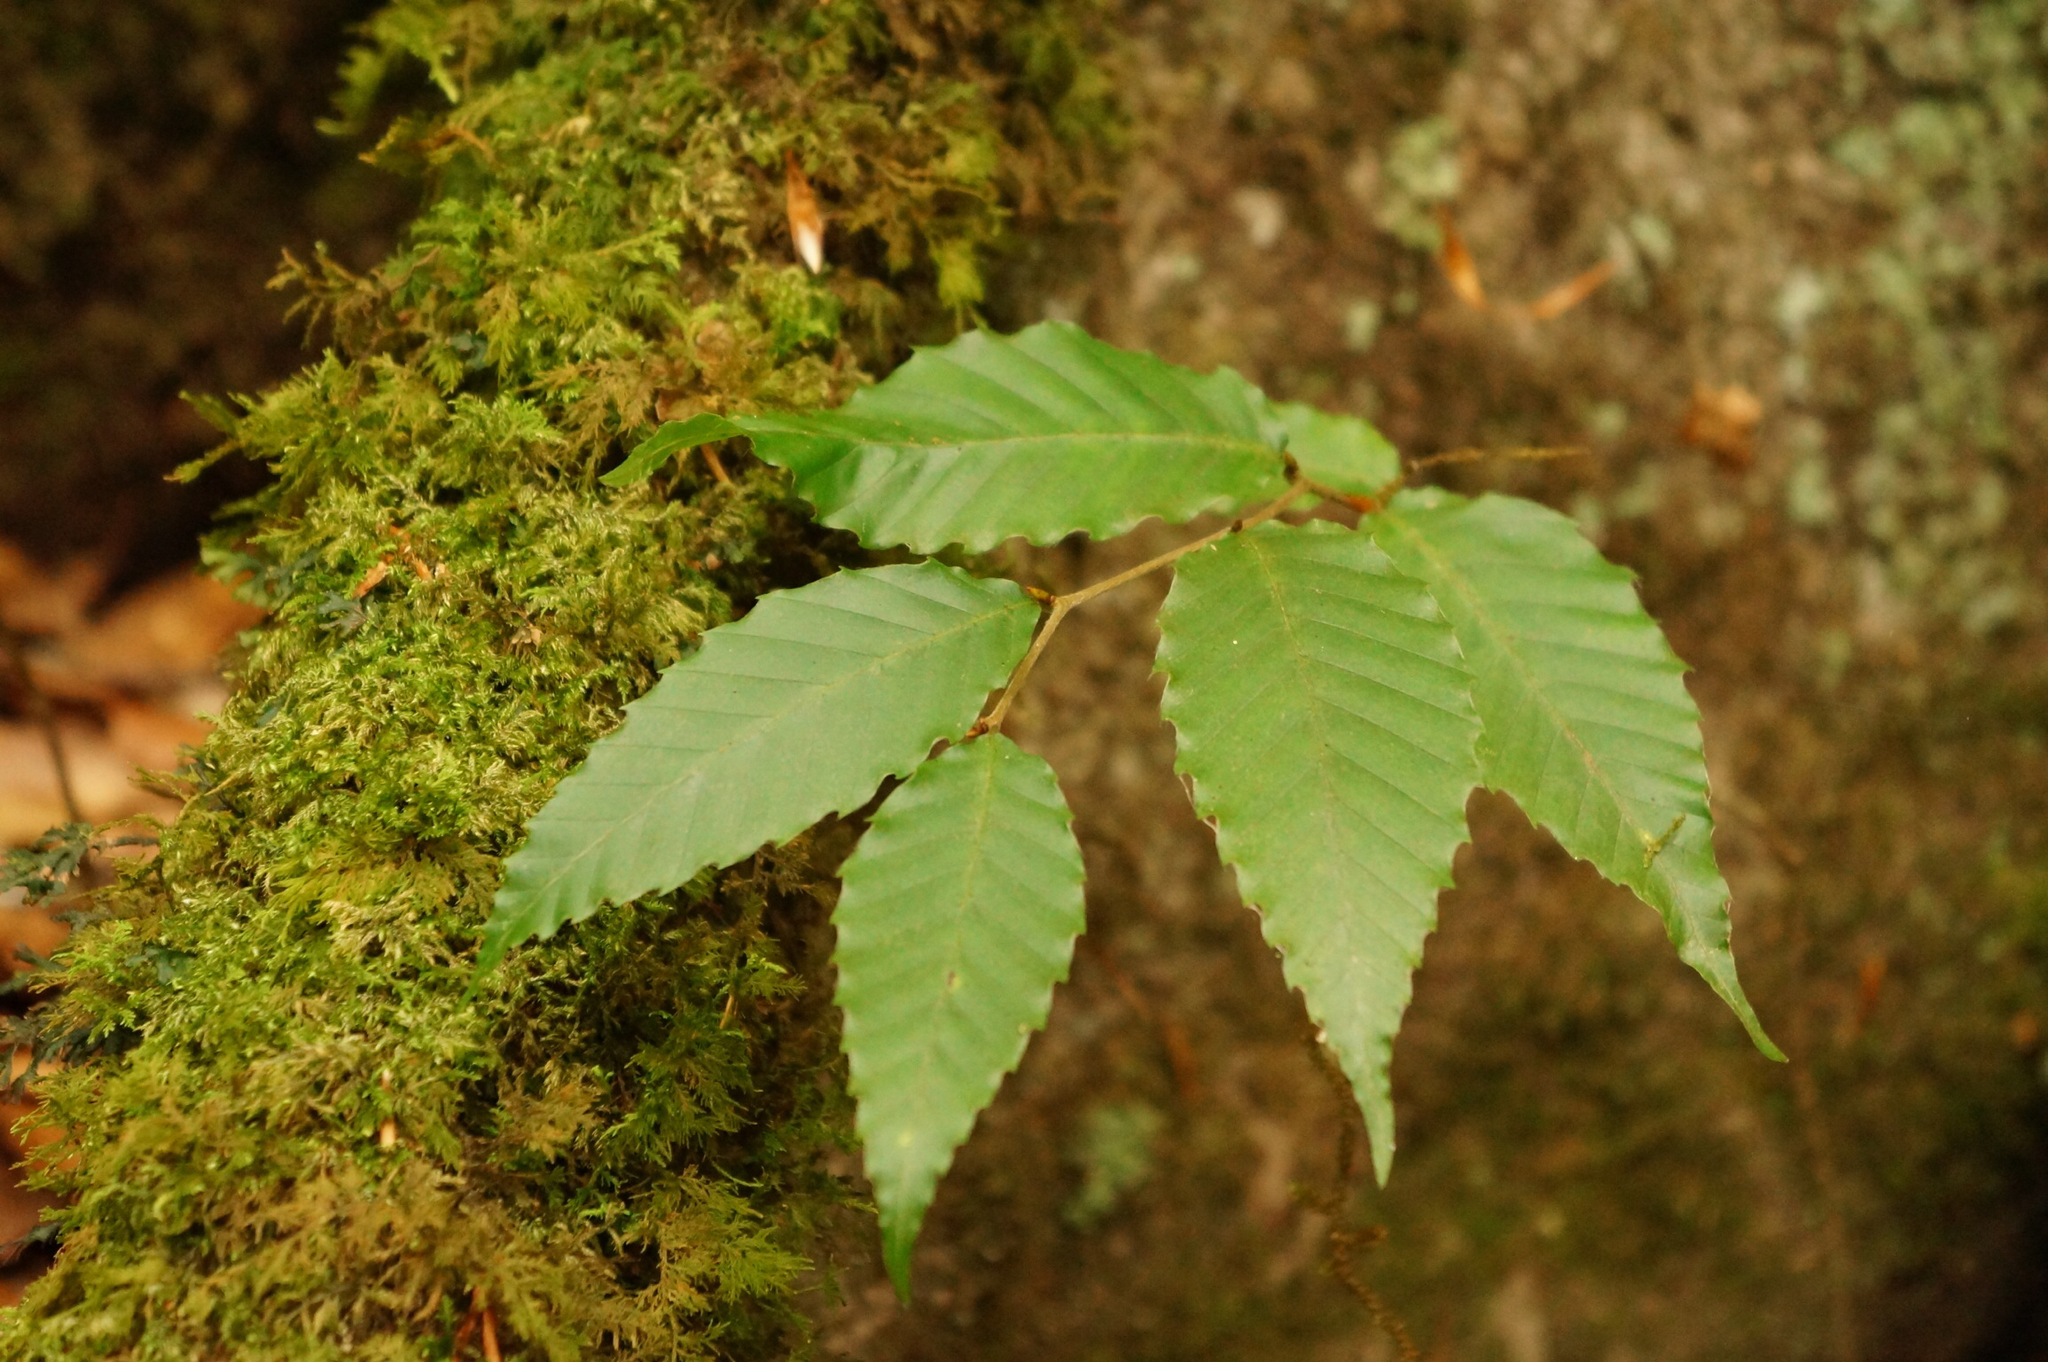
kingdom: Plantae
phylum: Tracheophyta
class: Magnoliopsida
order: Fagales
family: Fagaceae
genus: Fagus
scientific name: Fagus grandifolia
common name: American beech
